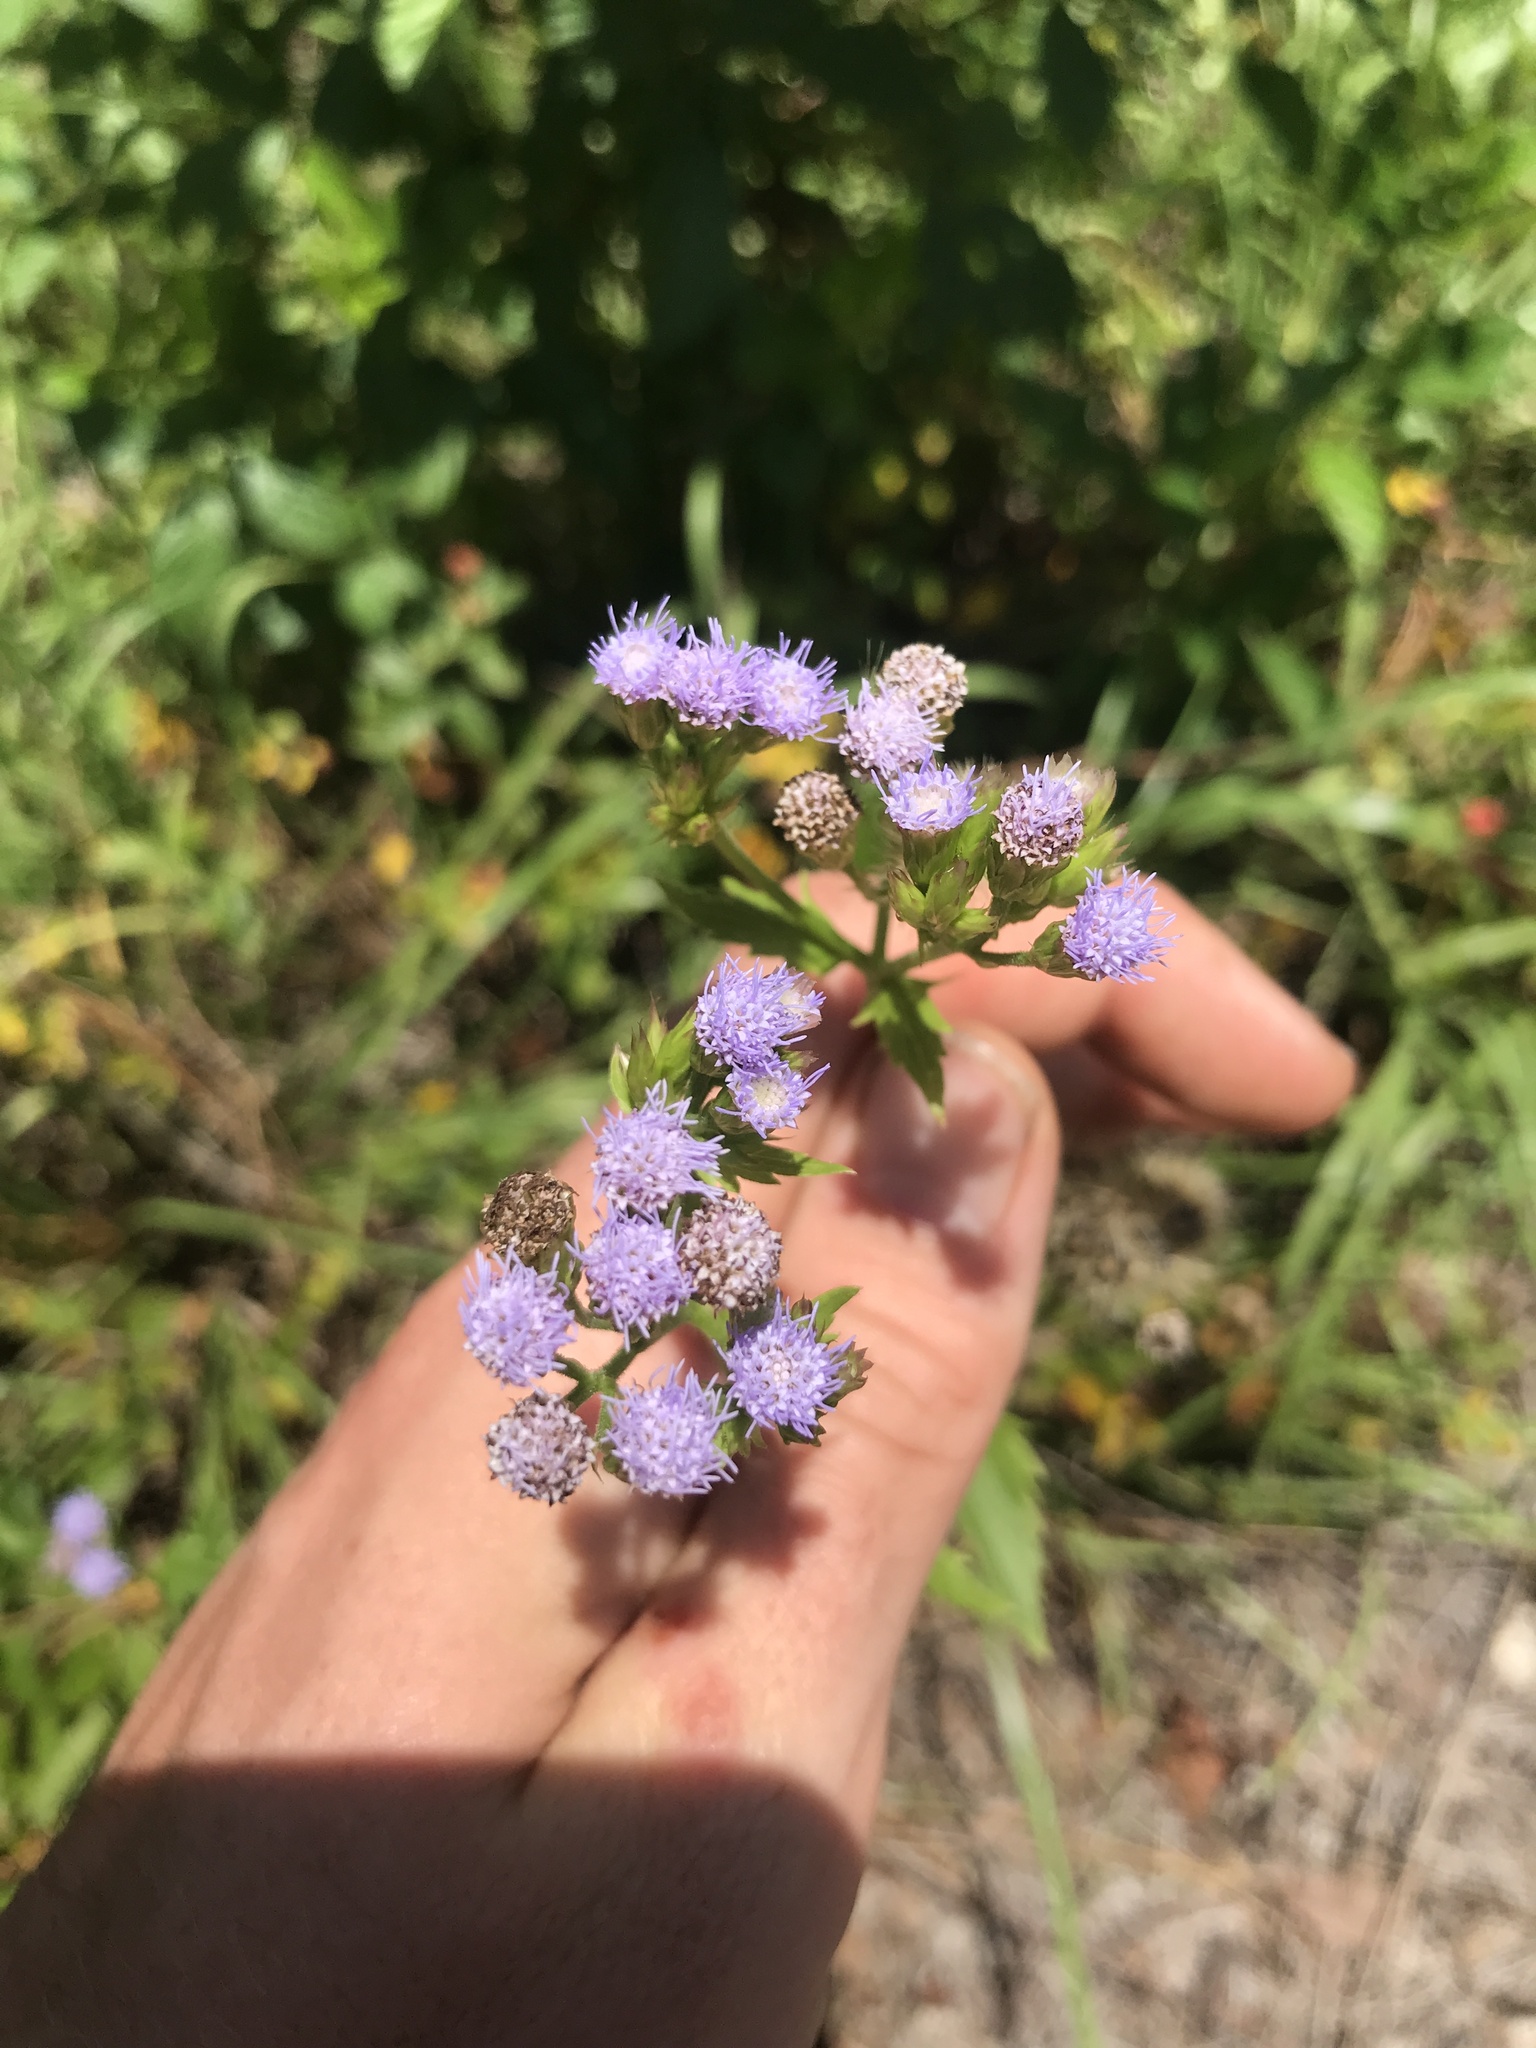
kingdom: Plantae
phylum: Tracheophyta
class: Magnoliopsida
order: Asterales
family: Asteraceae
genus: Praxelis
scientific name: Praxelis clematidea
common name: Praxelis
